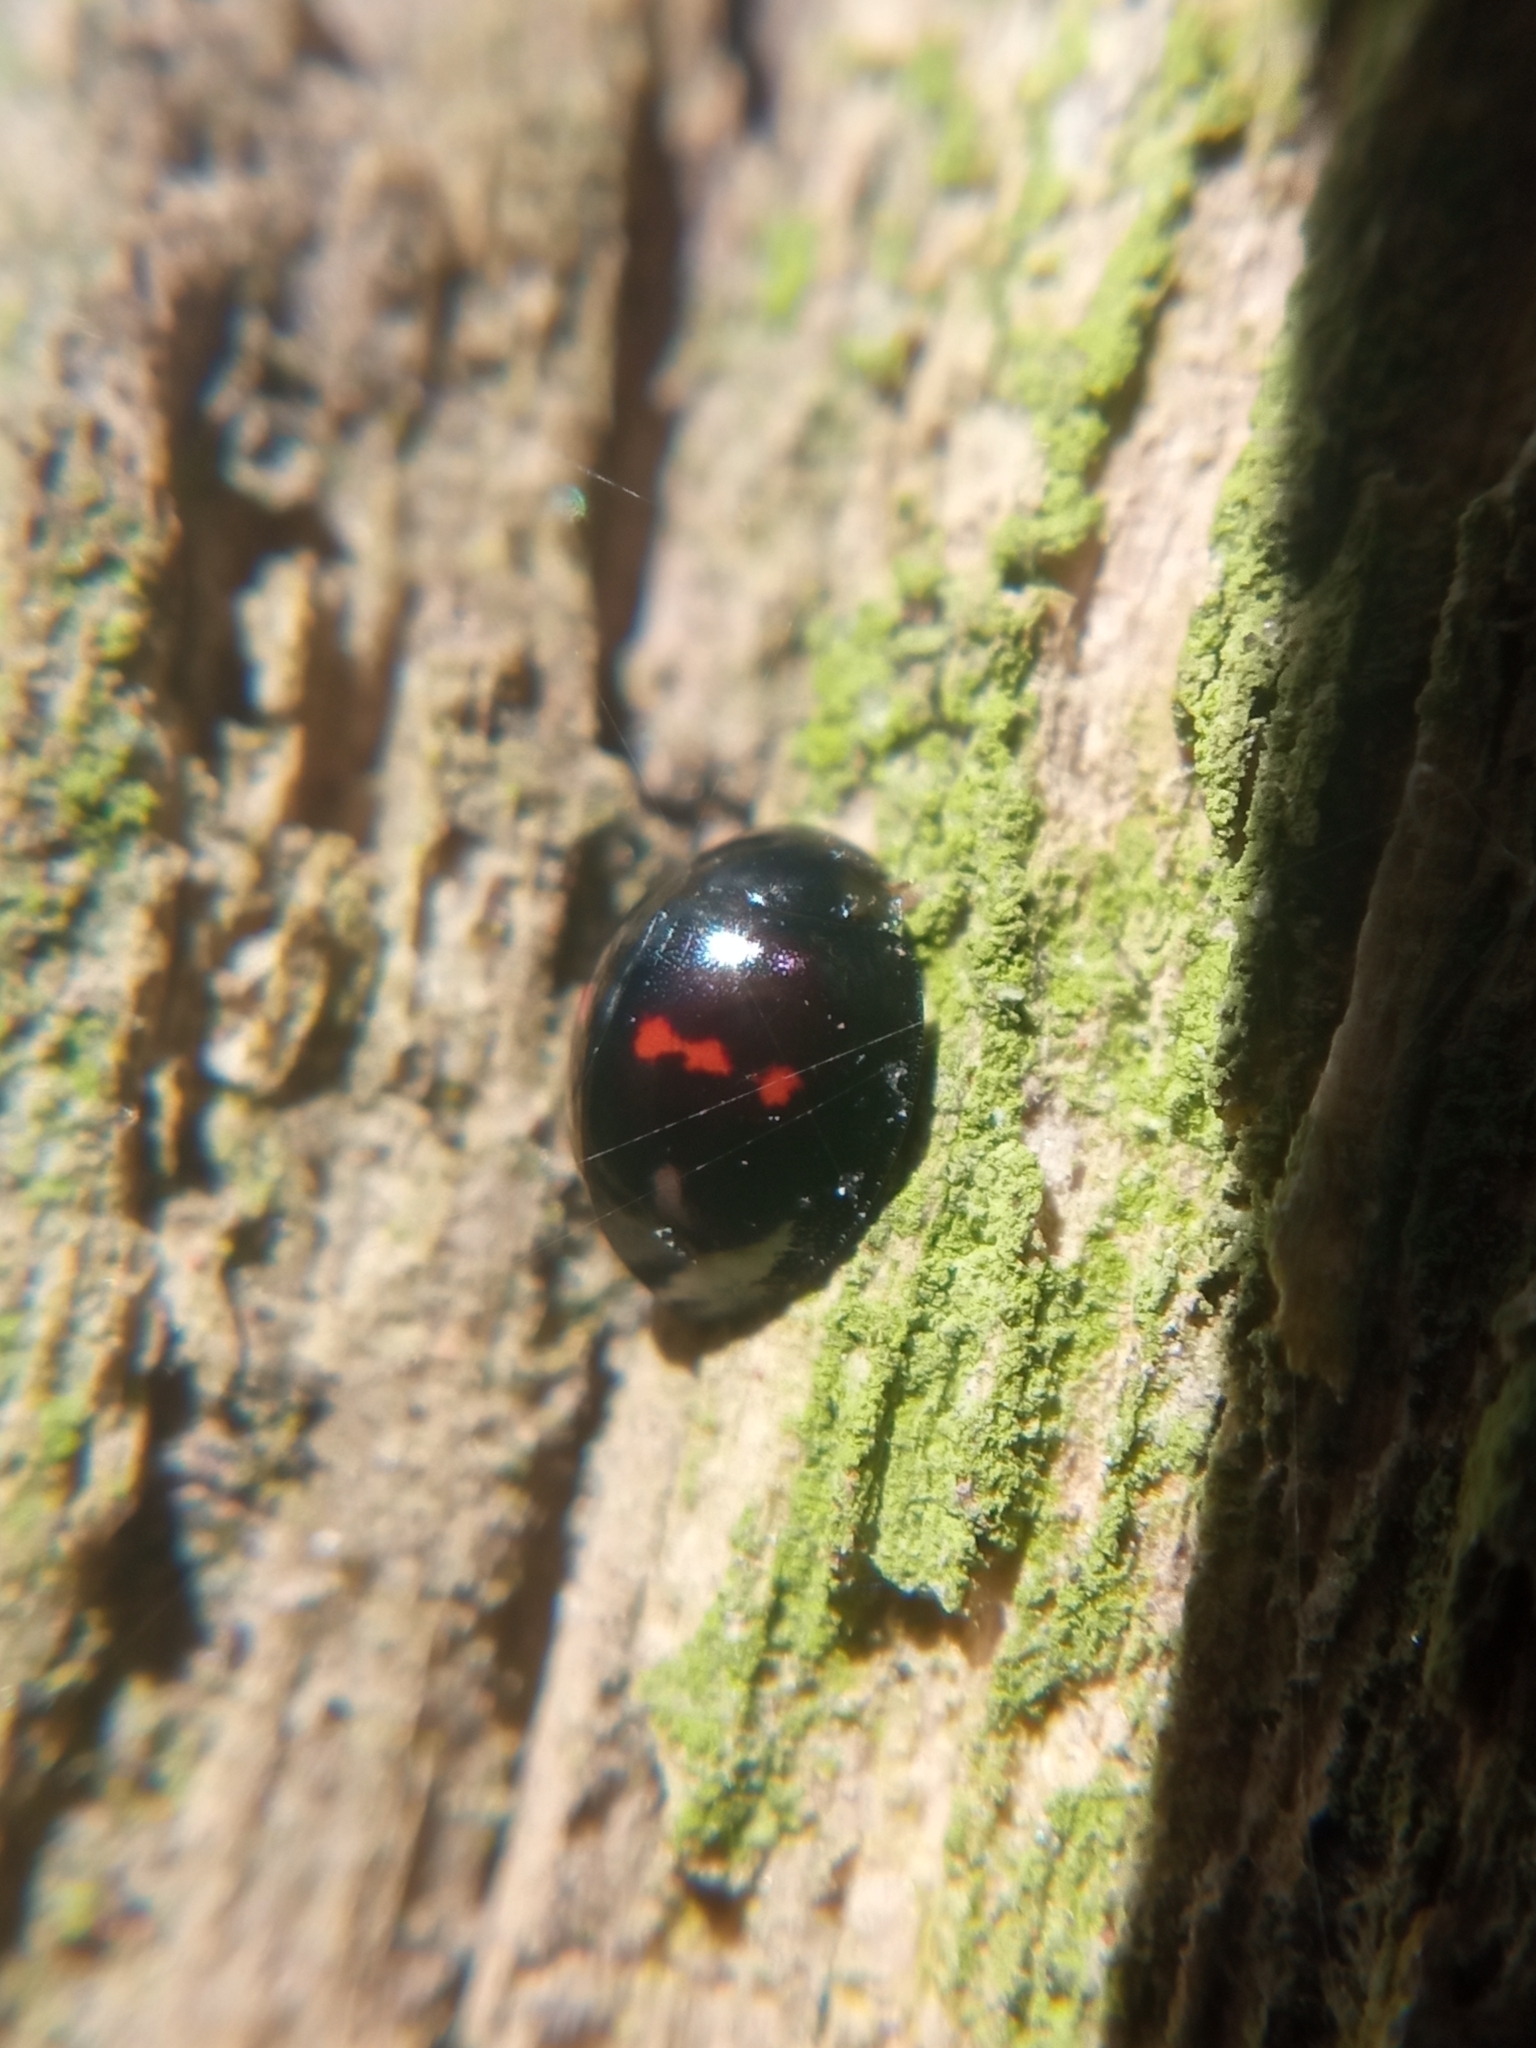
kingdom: Animalia
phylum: Arthropoda
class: Insecta
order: Coleoptera
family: Coccinellidae
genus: Chilocorus
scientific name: Chilocorus bipustulatus
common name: Heather ladybird
